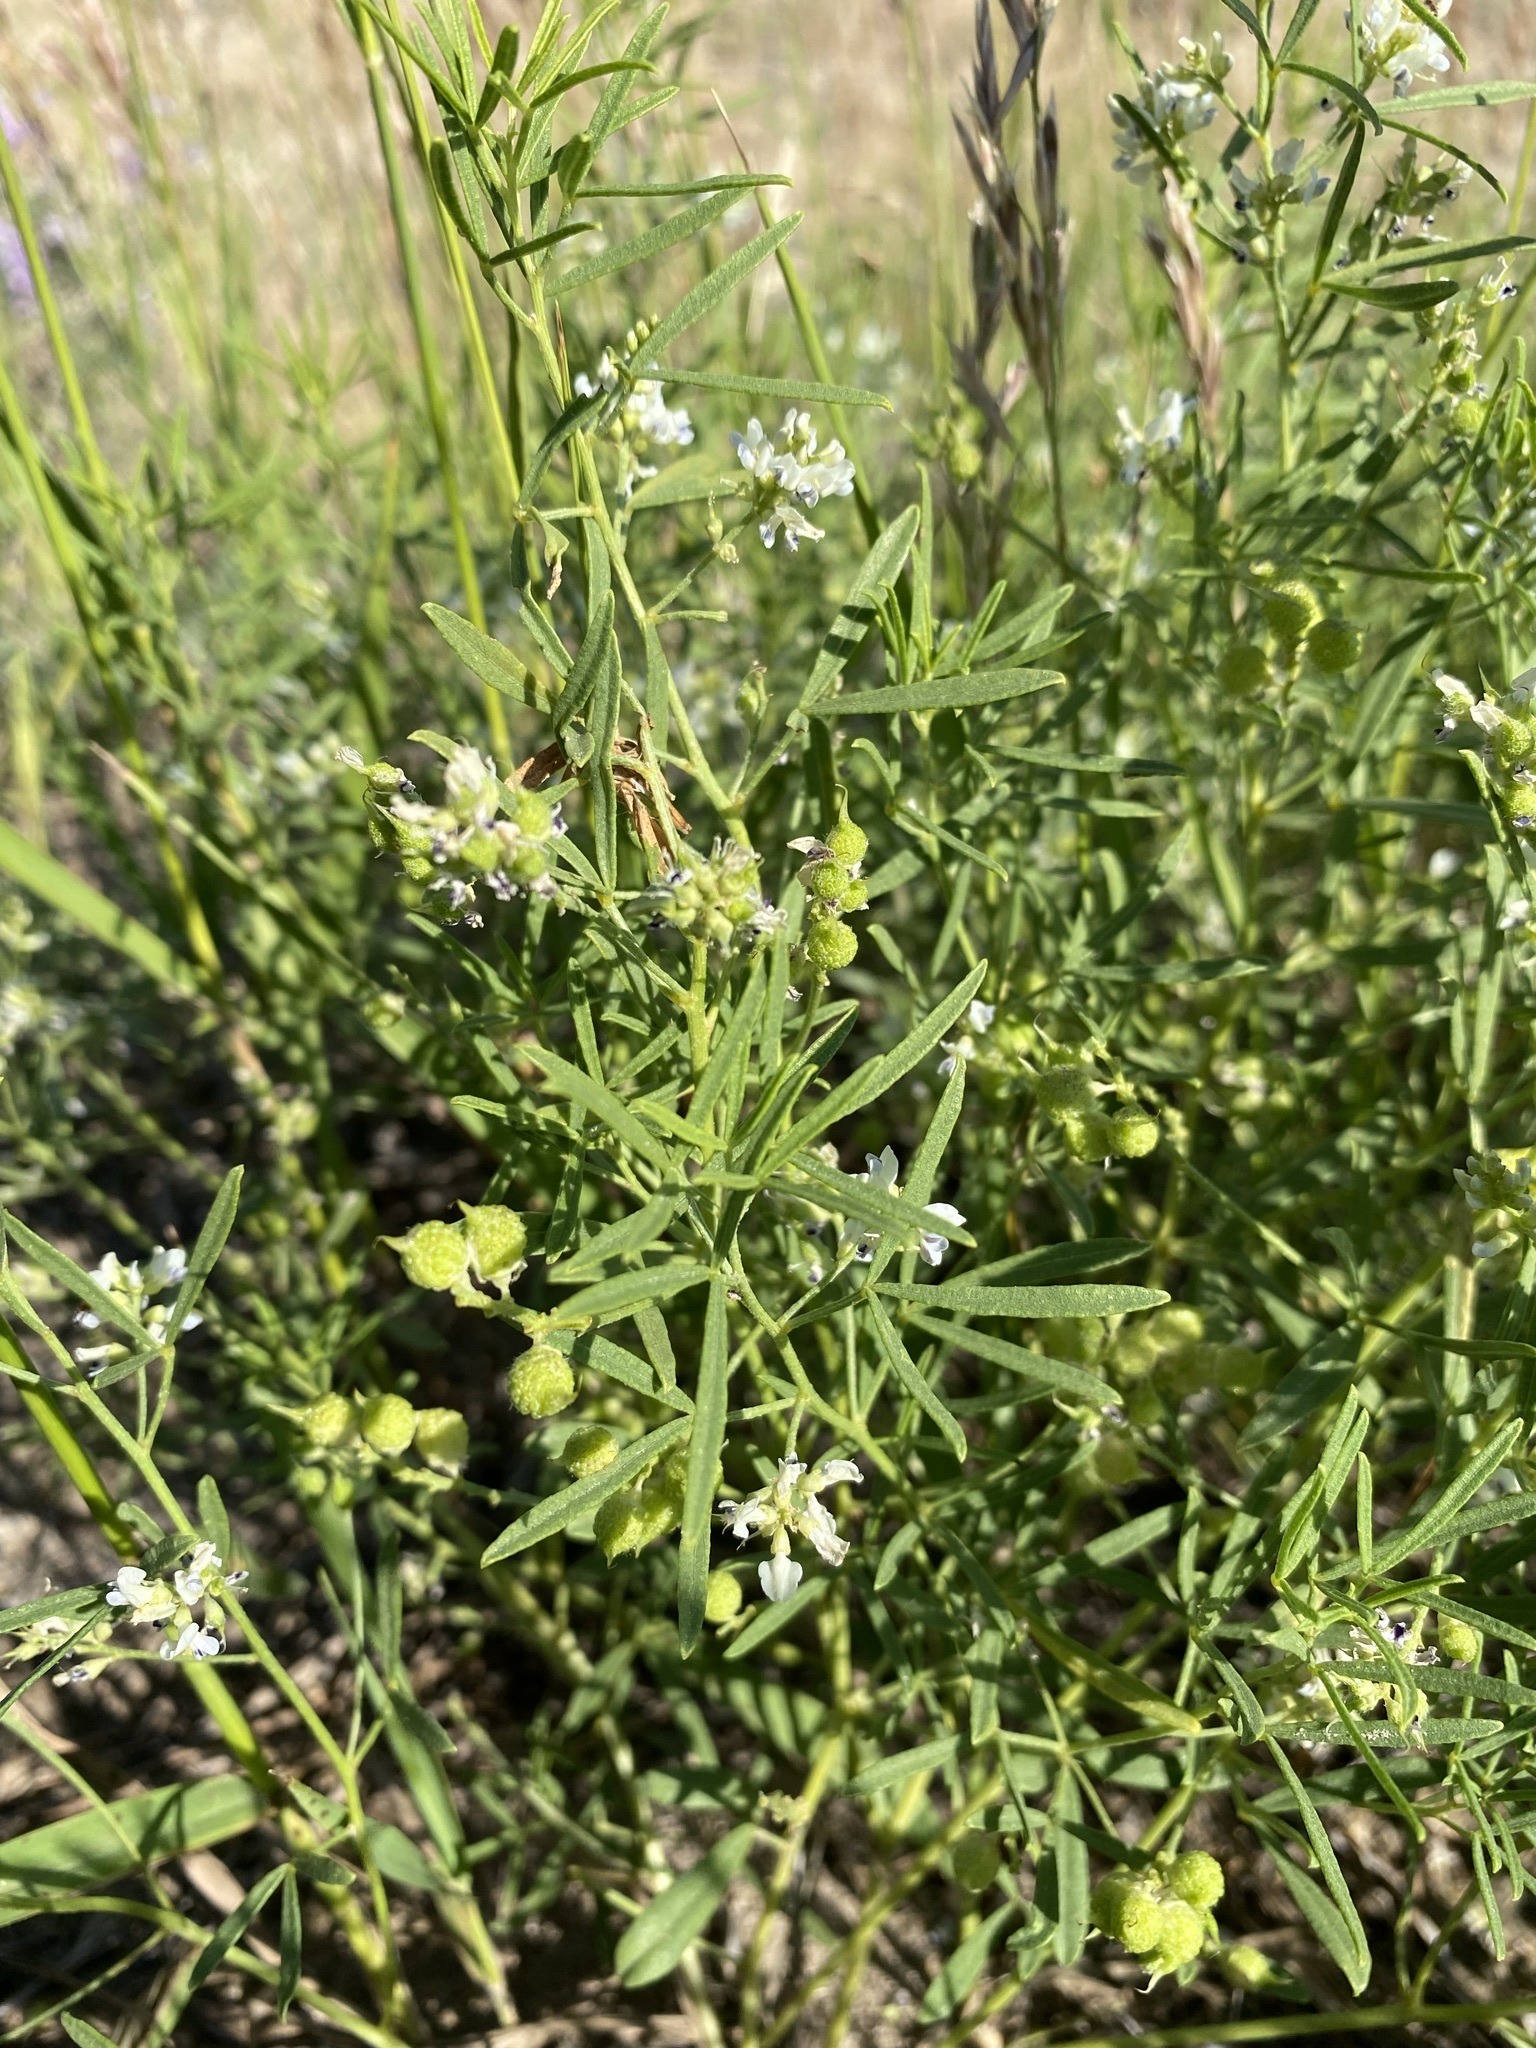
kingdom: Plantae
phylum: Tracheophyta
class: Magnoliopsida
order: Fabales
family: Fabaceae
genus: Ladeania
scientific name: Ladeania lanceolata
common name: Dune scurf-pea
